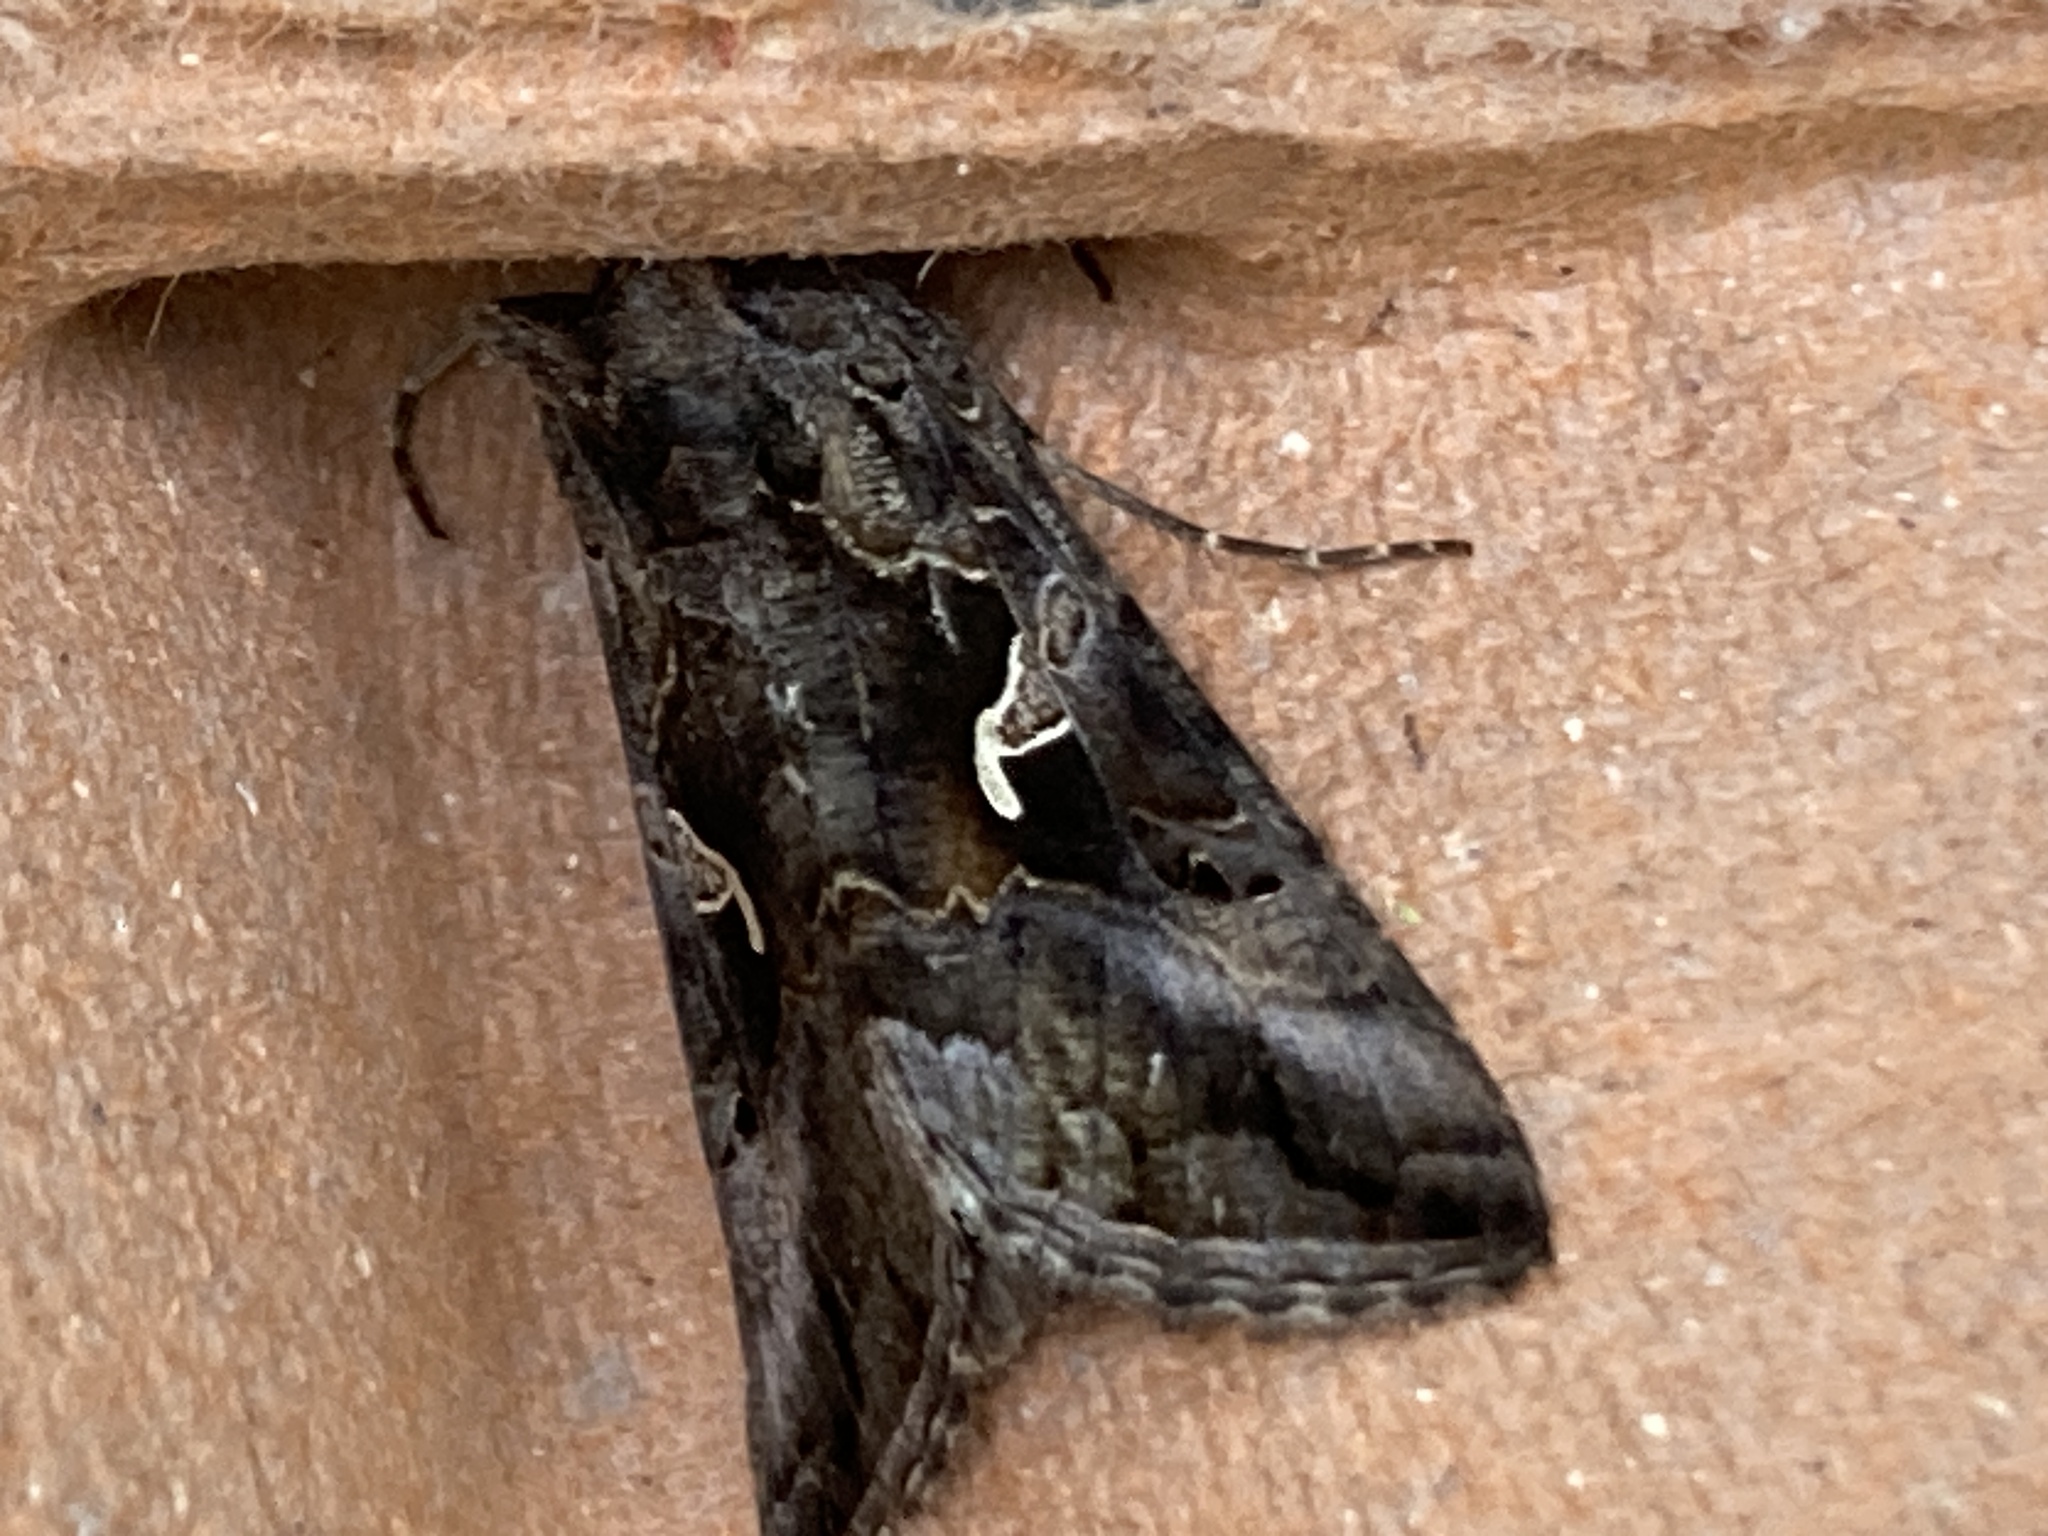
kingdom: Animalia
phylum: Arthropoda
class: Insecta
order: Lepidoptera
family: Noctuidae
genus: Autographa
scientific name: Autographa gamma
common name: Silver y
